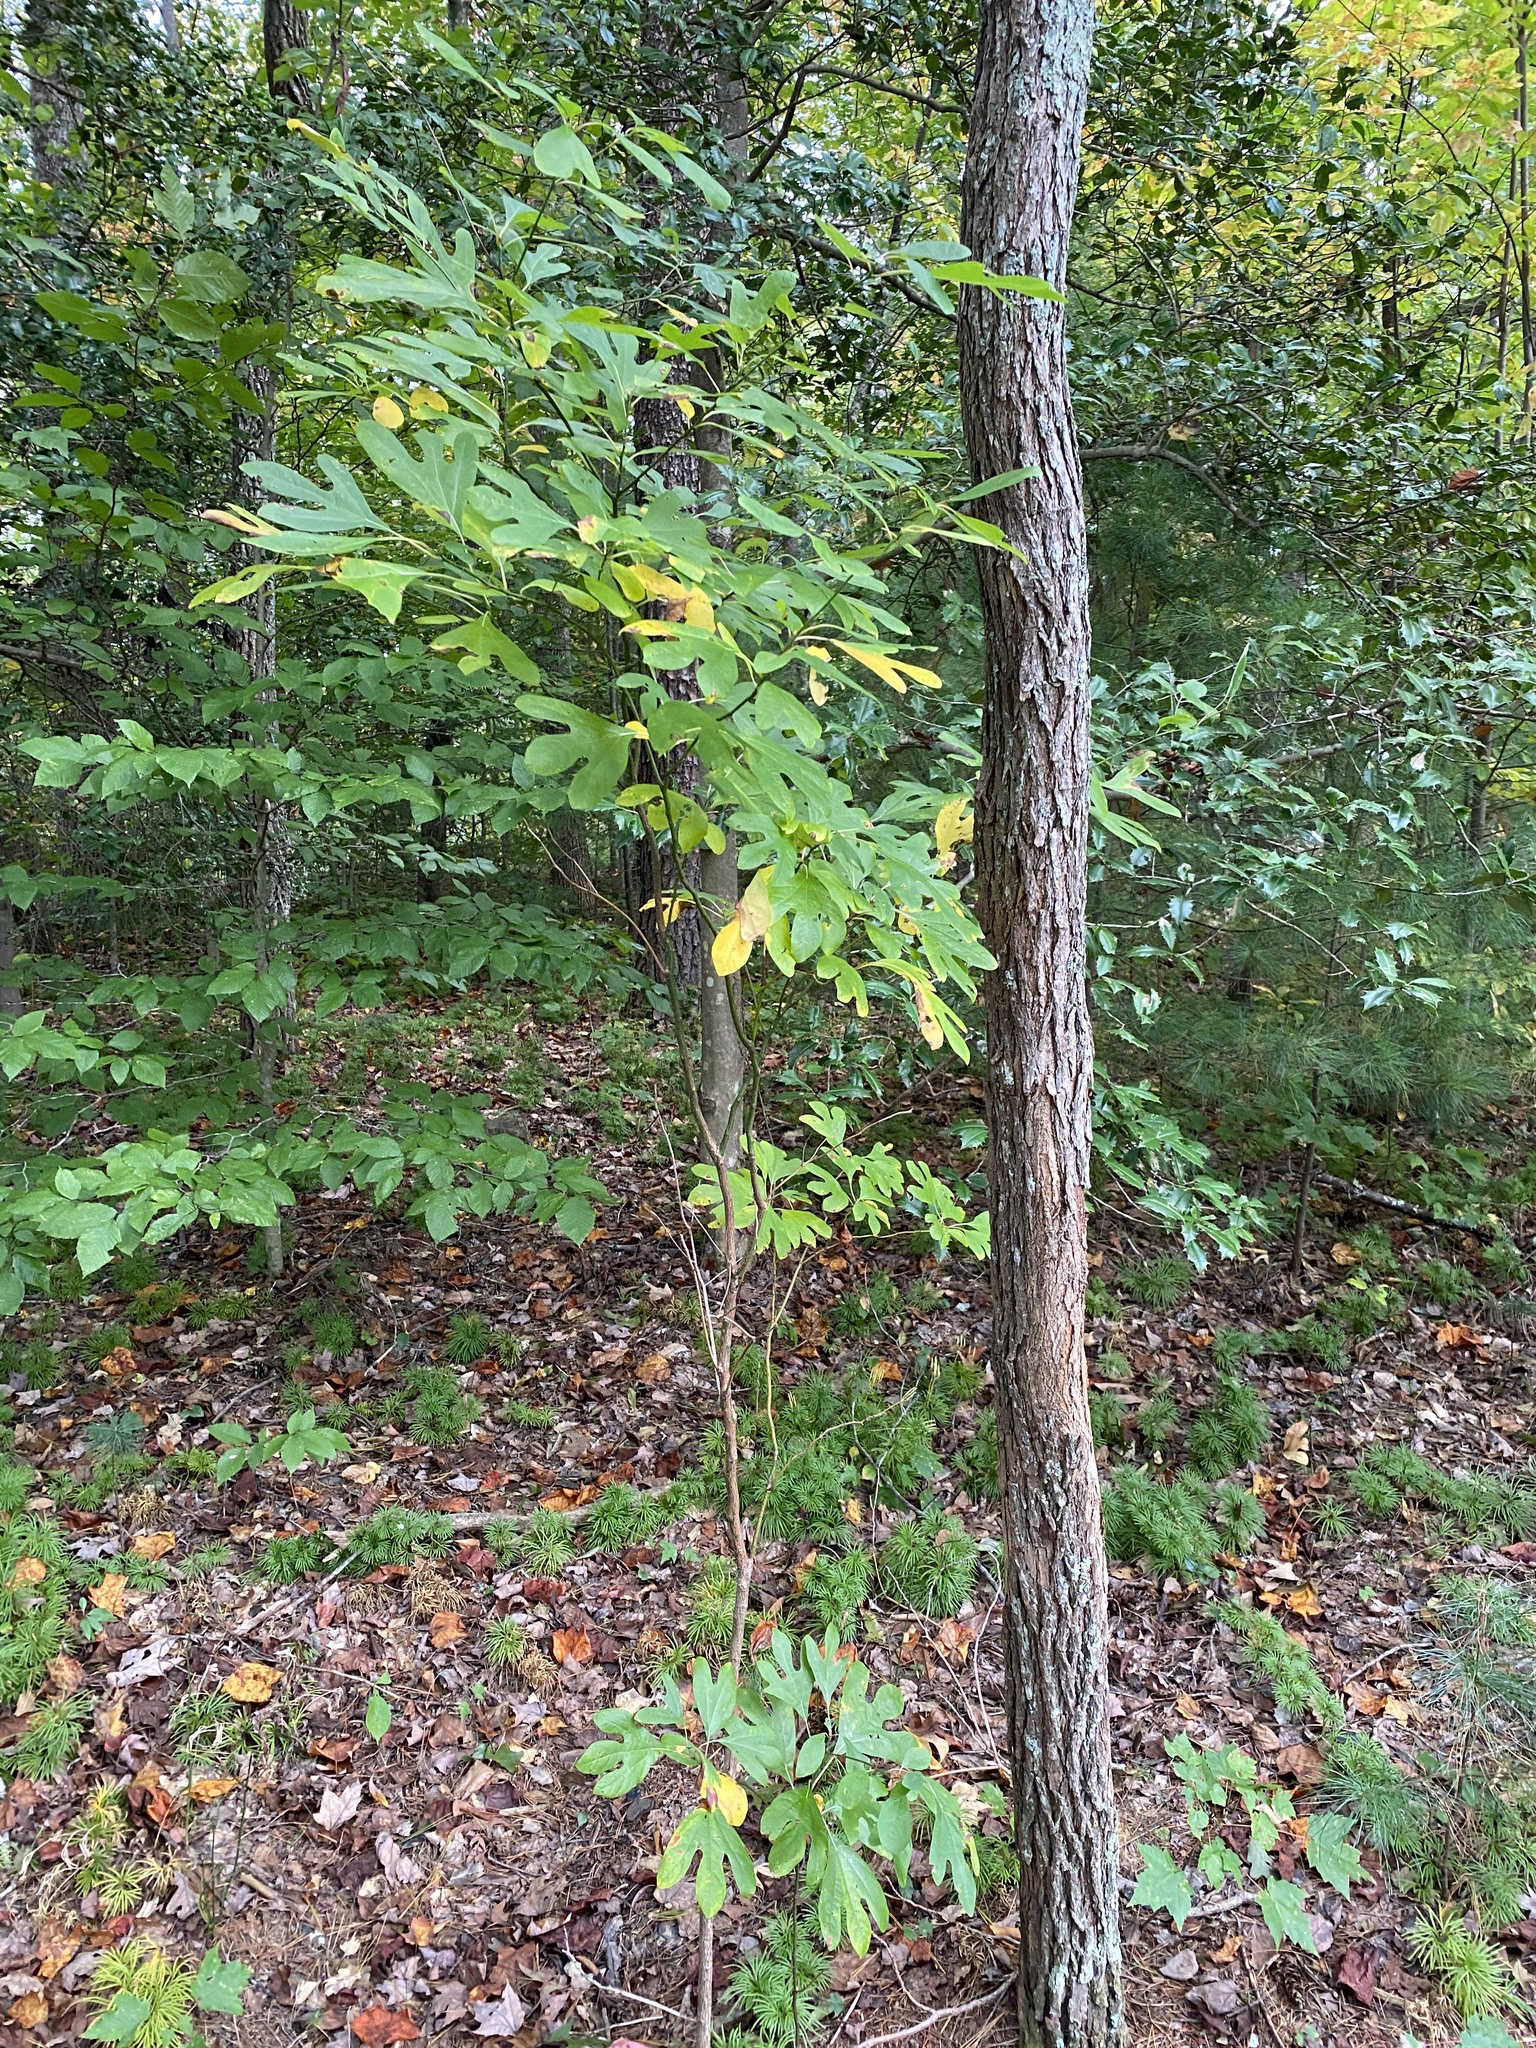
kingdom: Plantae
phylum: Tracheophyta
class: Magnoliopsida
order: Laurales
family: Lauraceae
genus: Sassafras
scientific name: Sassafras albidum
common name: Sassafras
